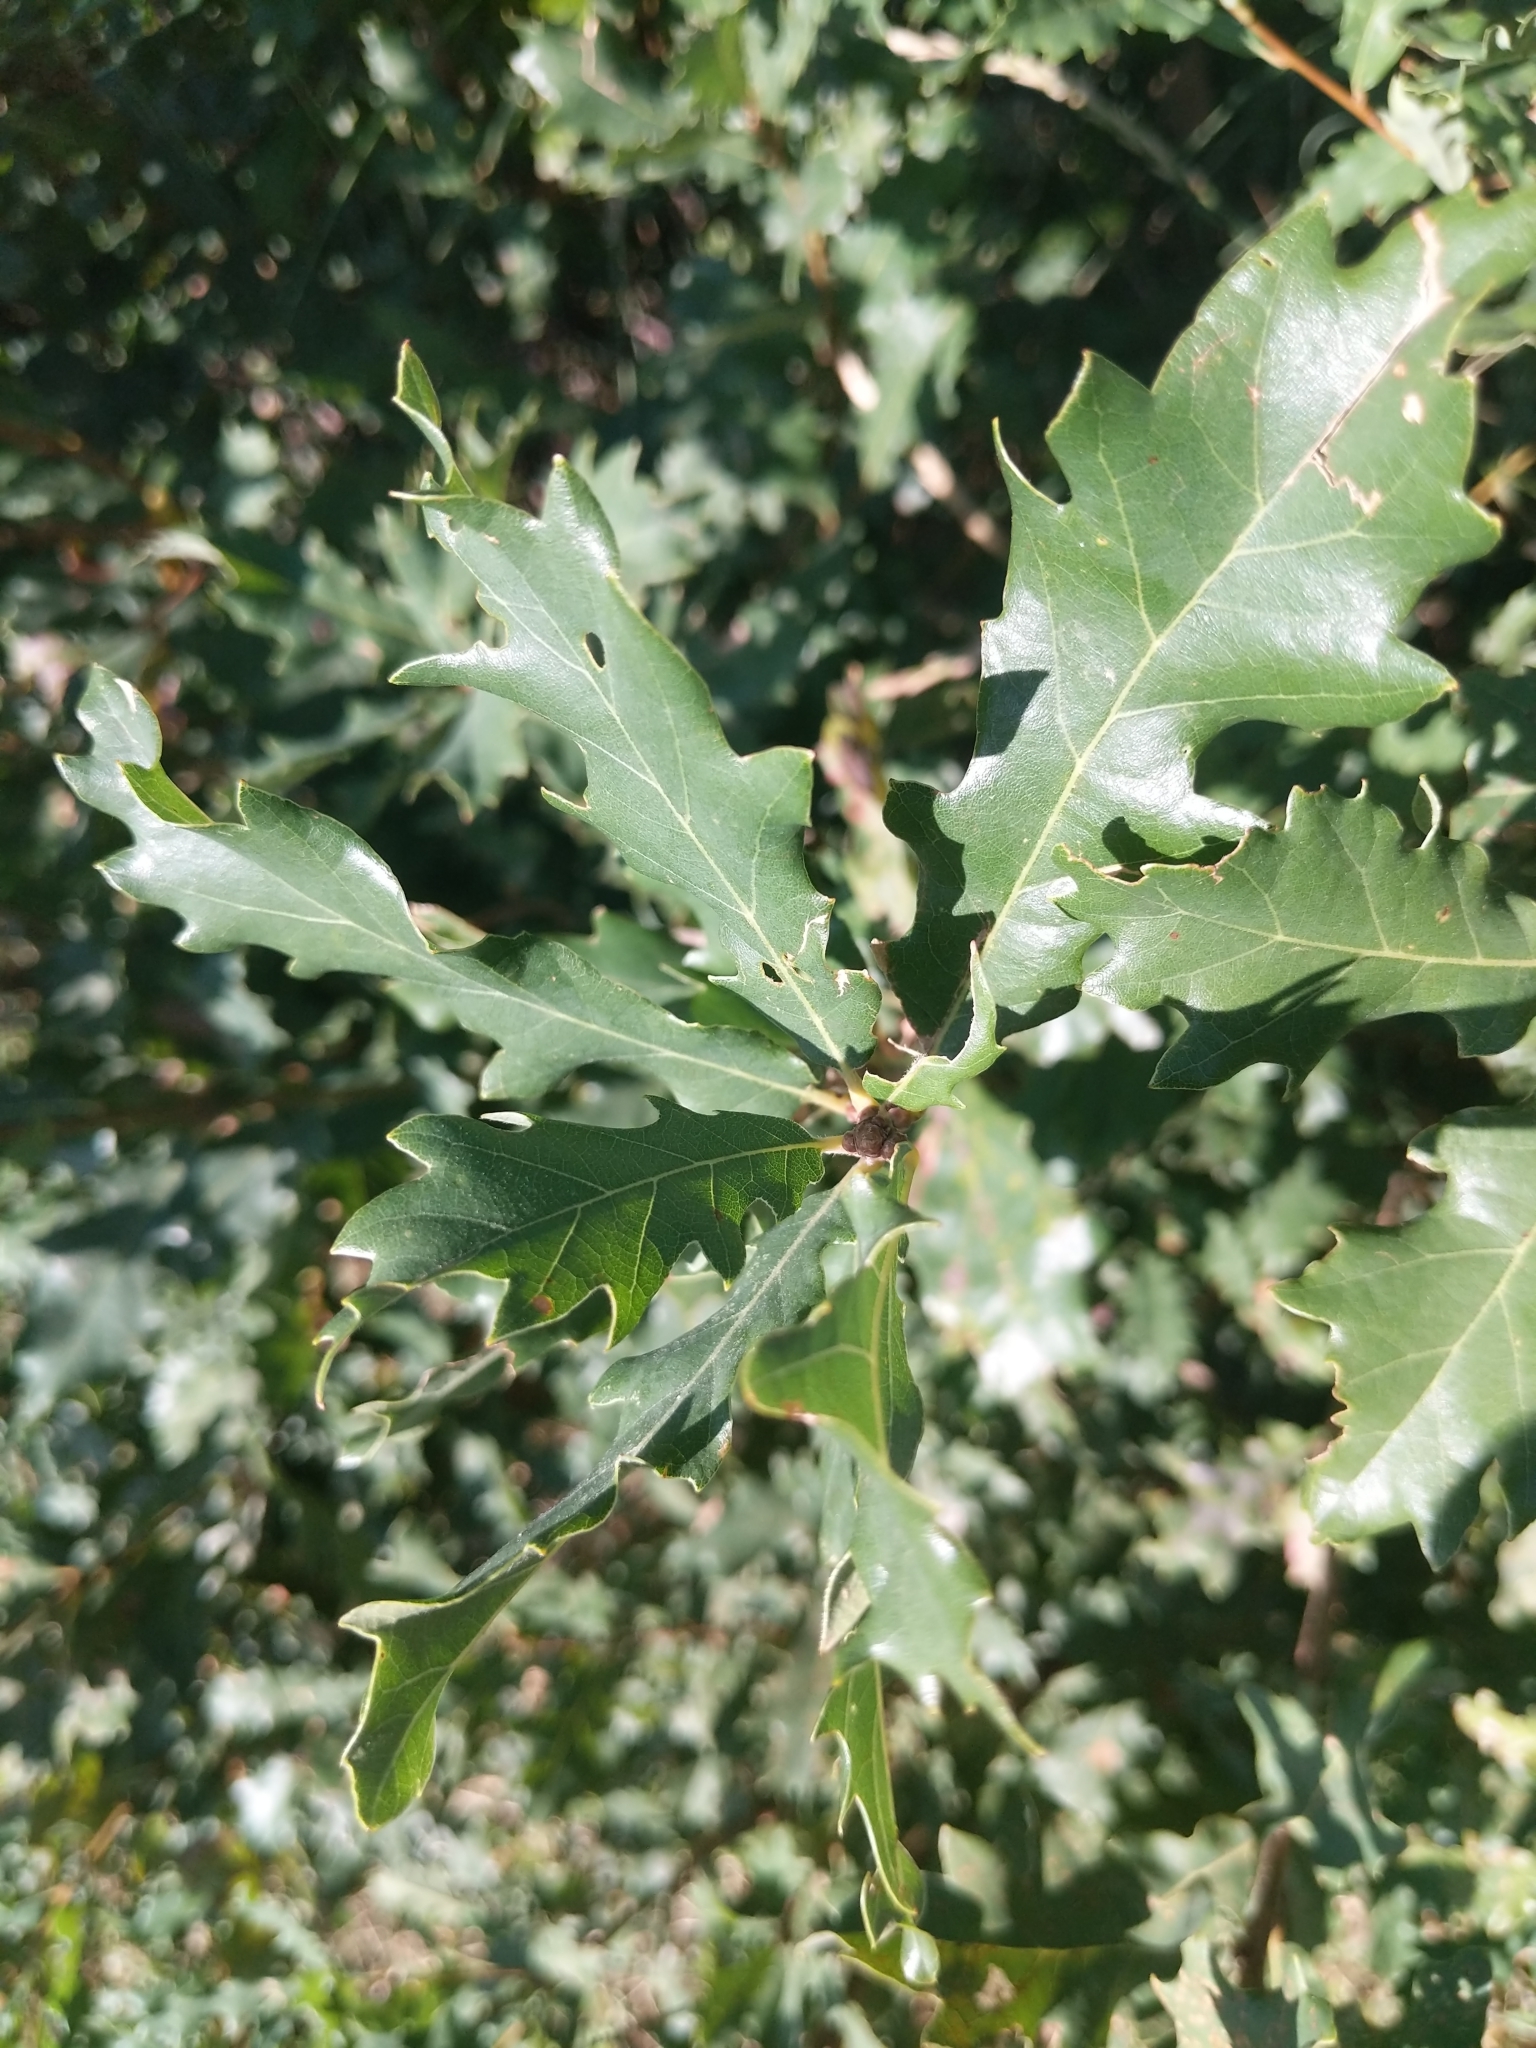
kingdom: Plantae
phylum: Tracheophyta
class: Magnoliopsida
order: Fagales
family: Fagaceae
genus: Quercus
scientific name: Quercus cerris
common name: Turkey oak
